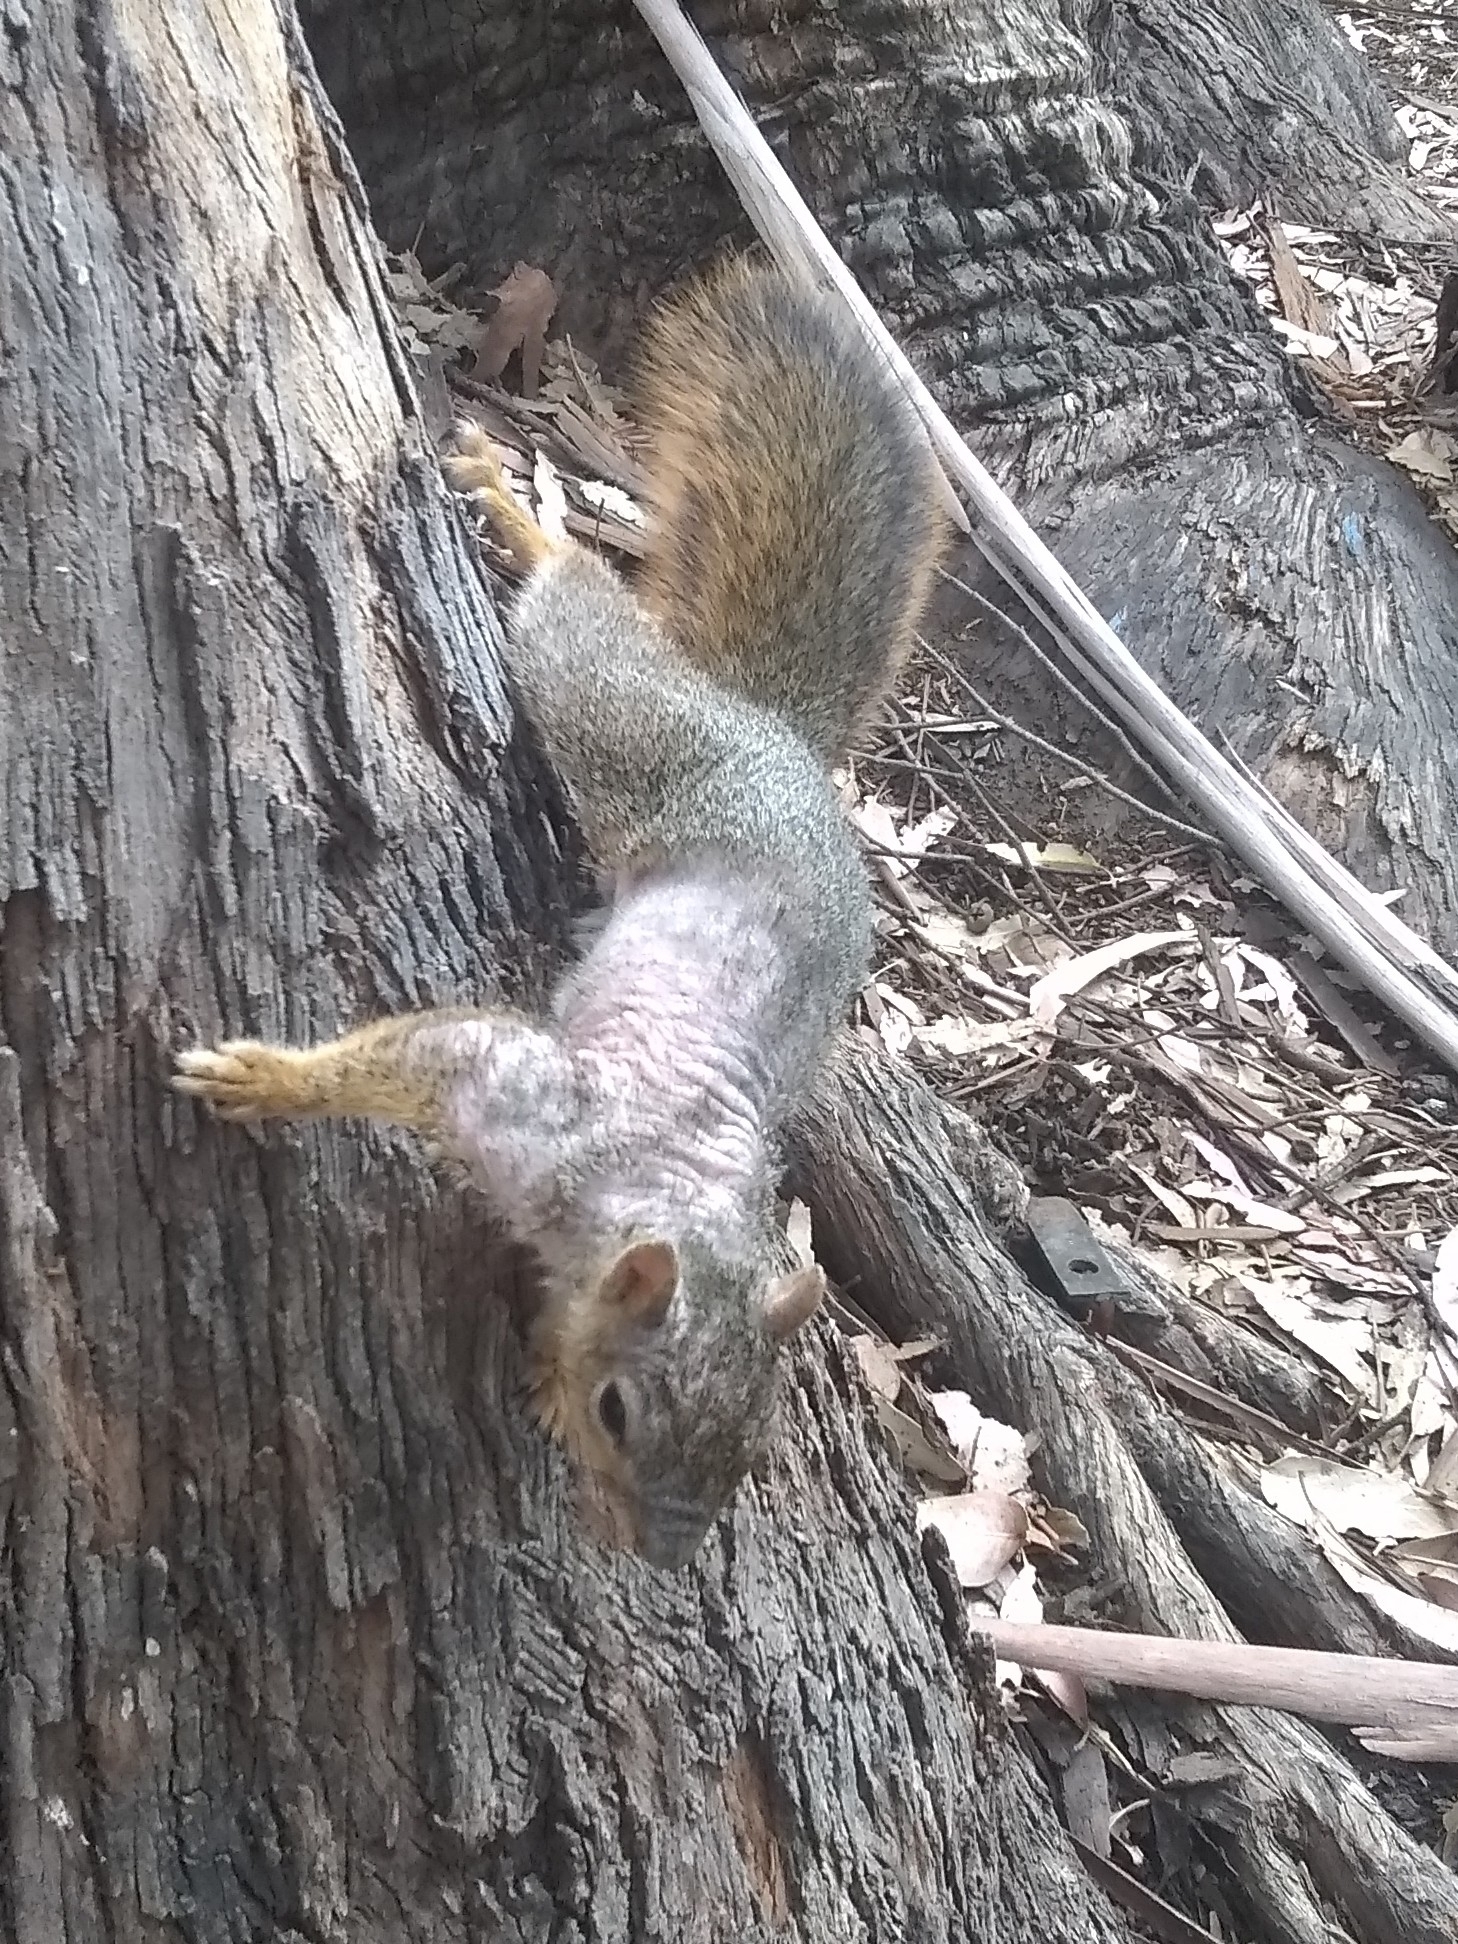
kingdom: Animalia
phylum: Chordata
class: Mammalia
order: Rodentia
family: Sciuridae
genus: Sciurus
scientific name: Sciurus niger
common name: Fox squirrel
